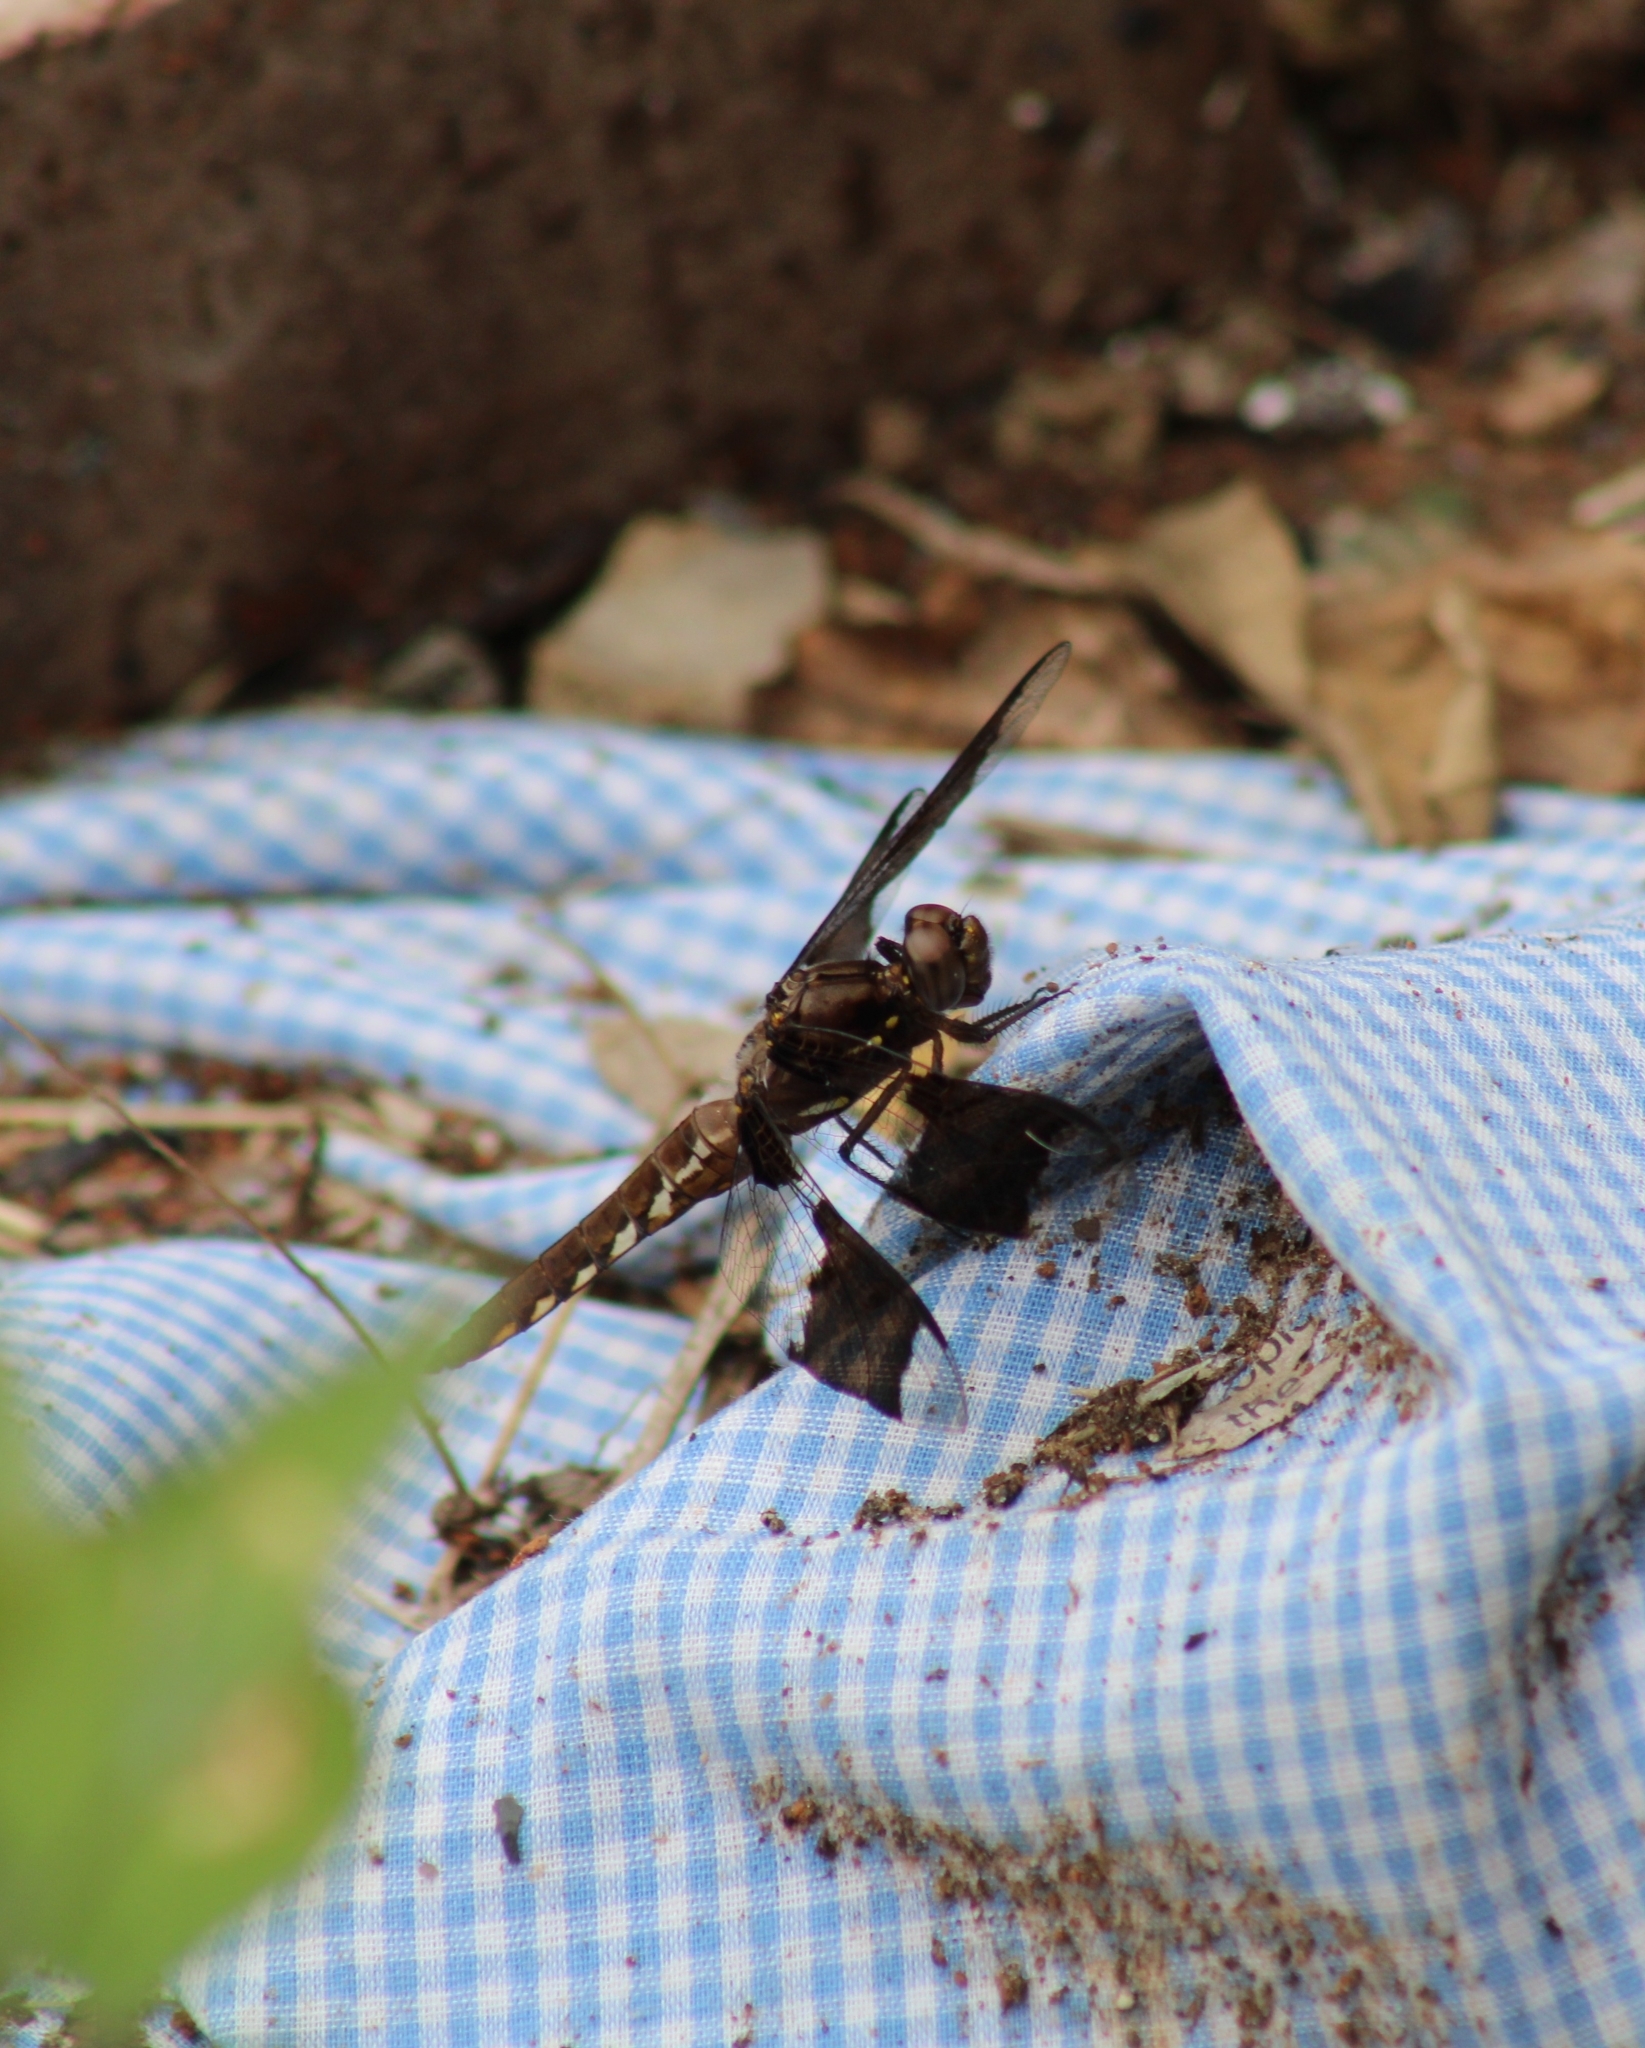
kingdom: Animalia
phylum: Arthropoda
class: Insecta
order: Odonata
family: Libellulidae
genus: Plathemis
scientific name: Plathemis lydia
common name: Common whitetail
